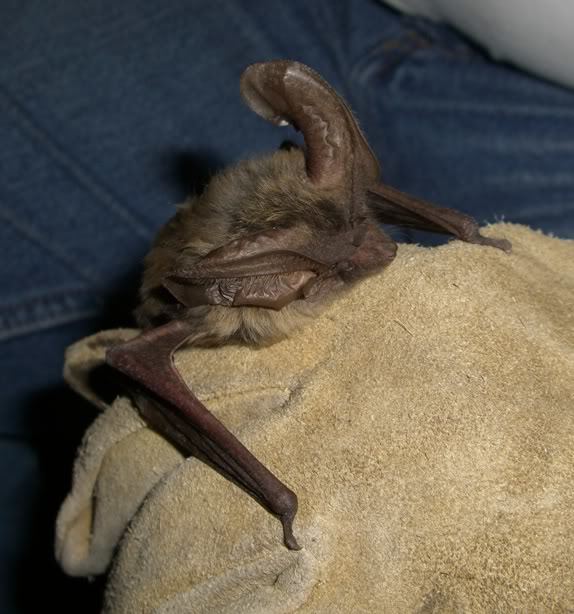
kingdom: Animalia
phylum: Chordata
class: Mammalia
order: Chiroptera
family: Vespertilionidae
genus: Idionycteris
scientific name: Idionycteris phyllotis
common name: Allen's big-eared bat
